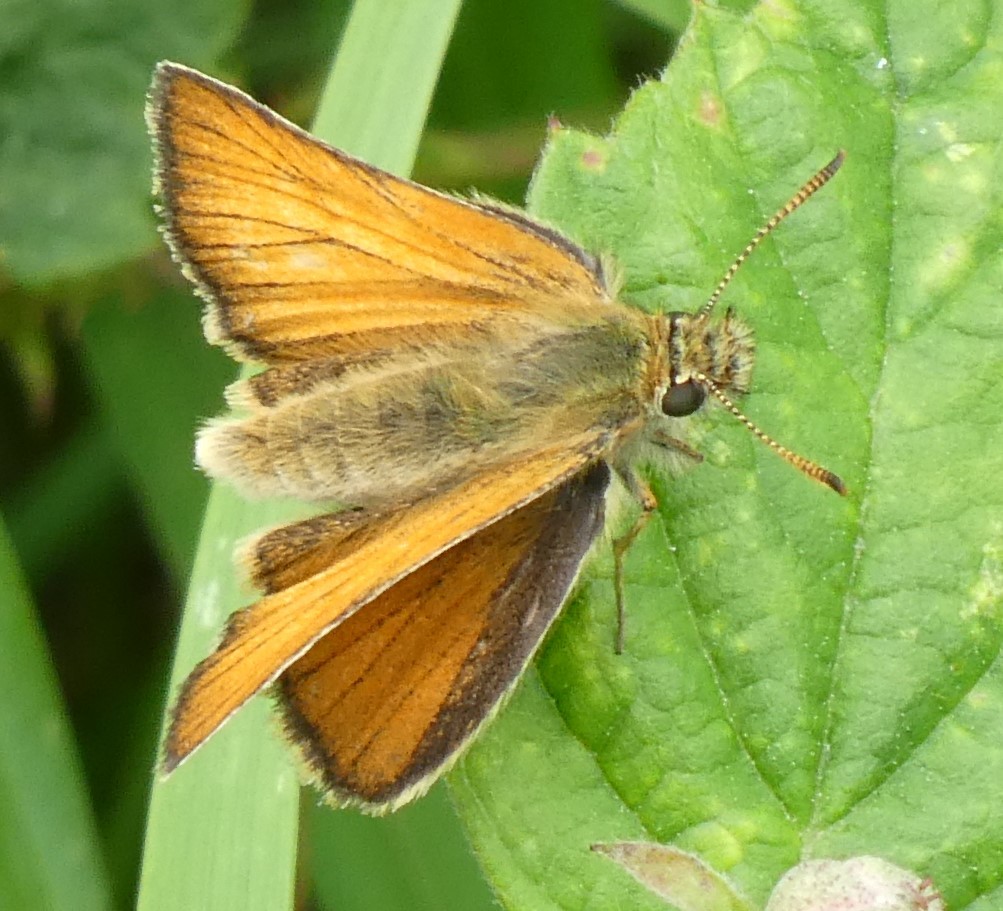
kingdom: Animalia
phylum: Arthropoda
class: Insecta
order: Lepidoptera
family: Hesperiidae
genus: Thymelicus
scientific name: Thymelicus sylvestris
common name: Small skipper
